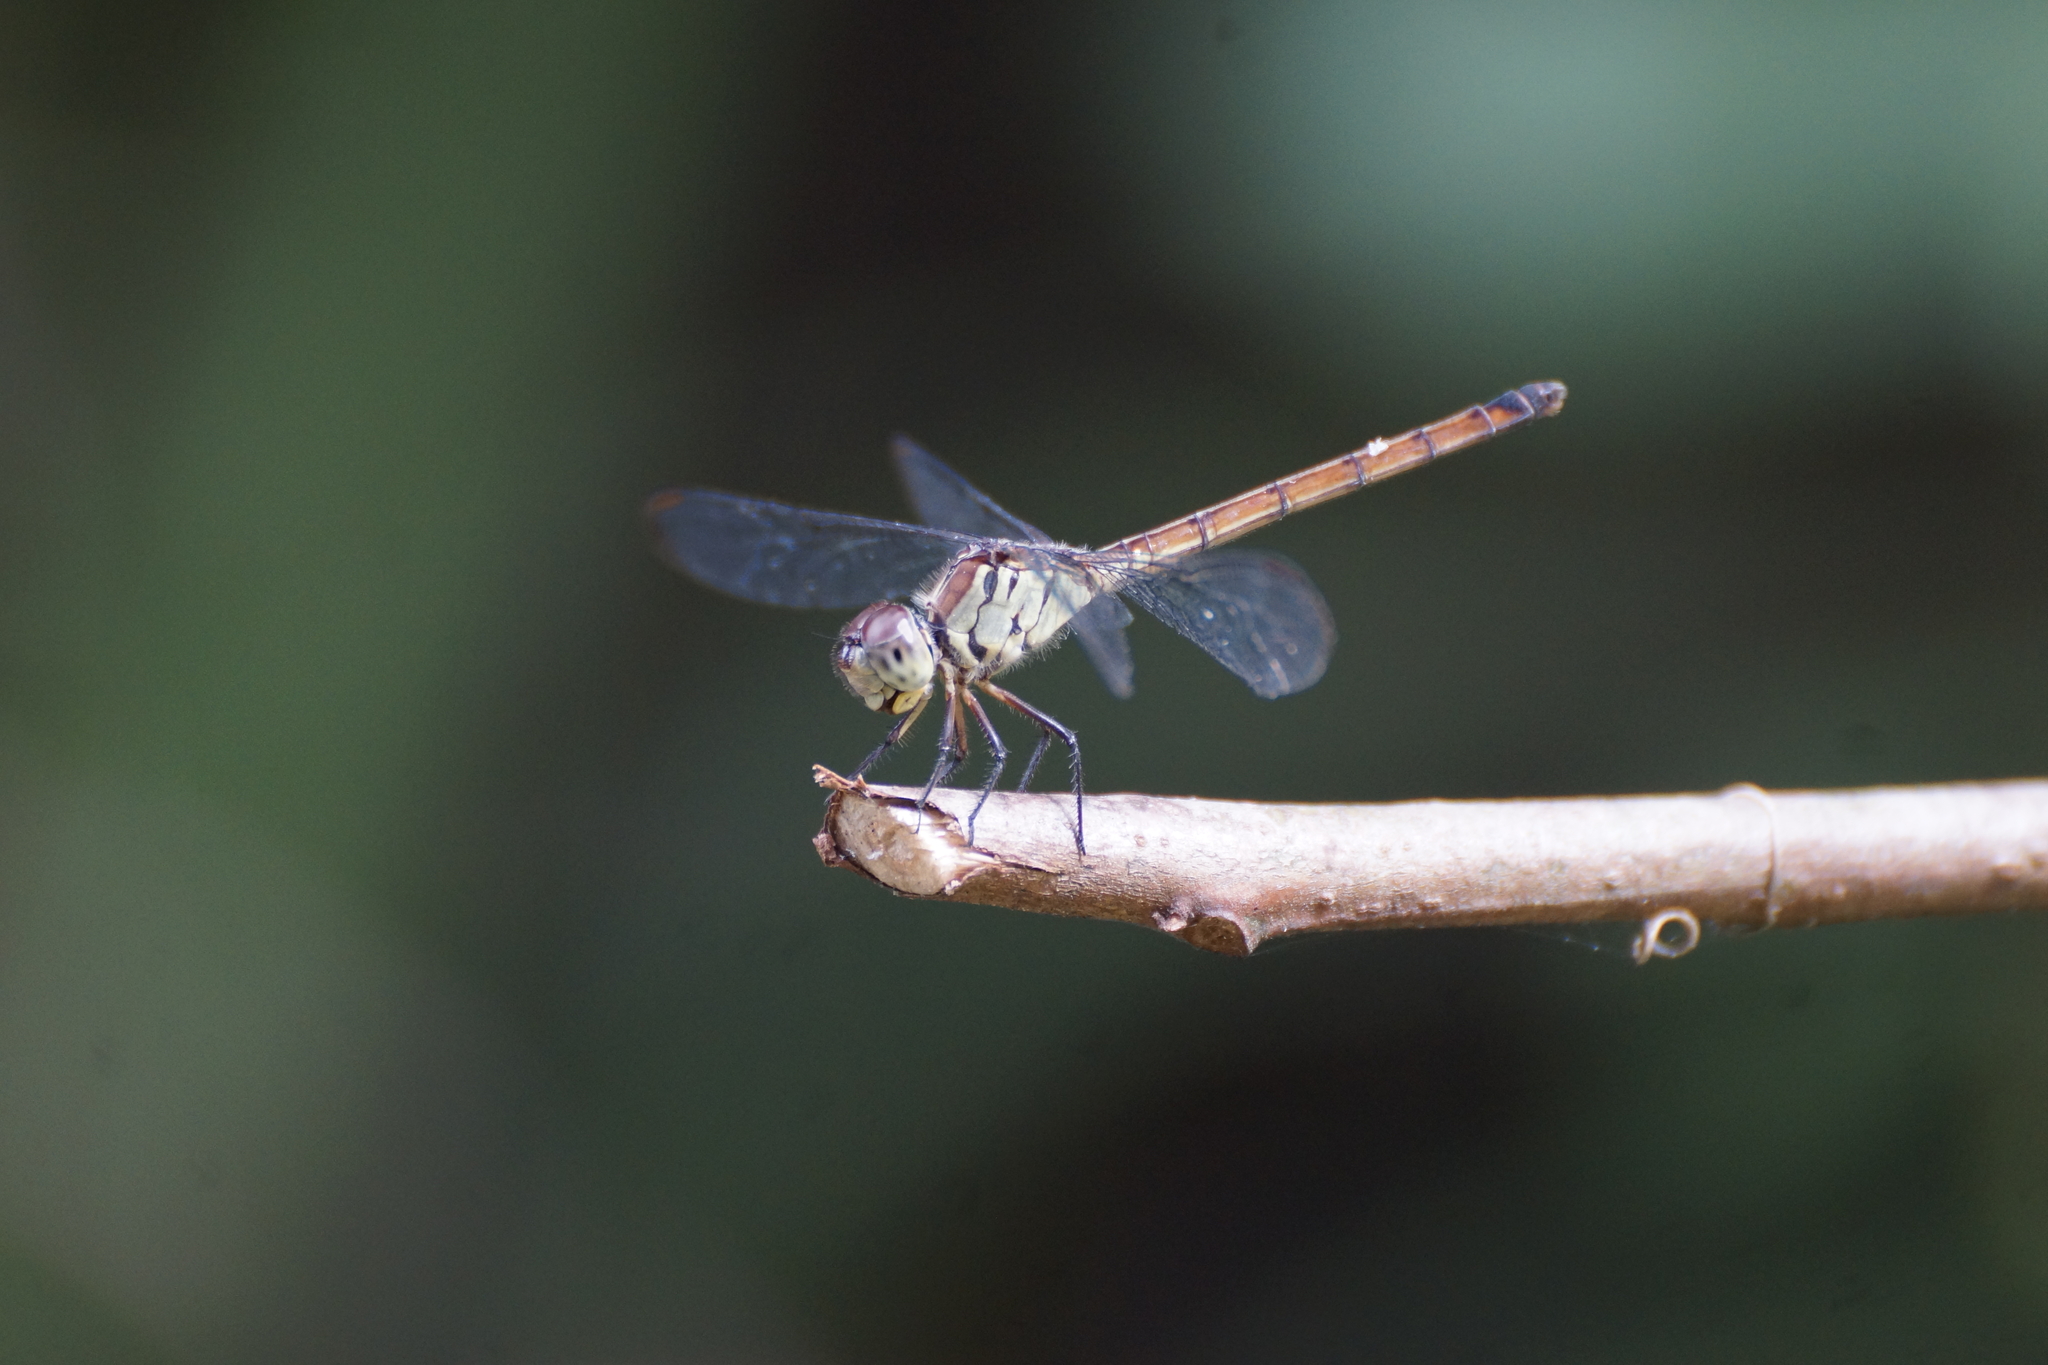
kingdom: Animalia
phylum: Arthropoda
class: Insecta
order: Odonata
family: Libellulidae
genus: Lathrecista
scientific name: Lathrecista asiatica
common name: Scarlet grenadier
